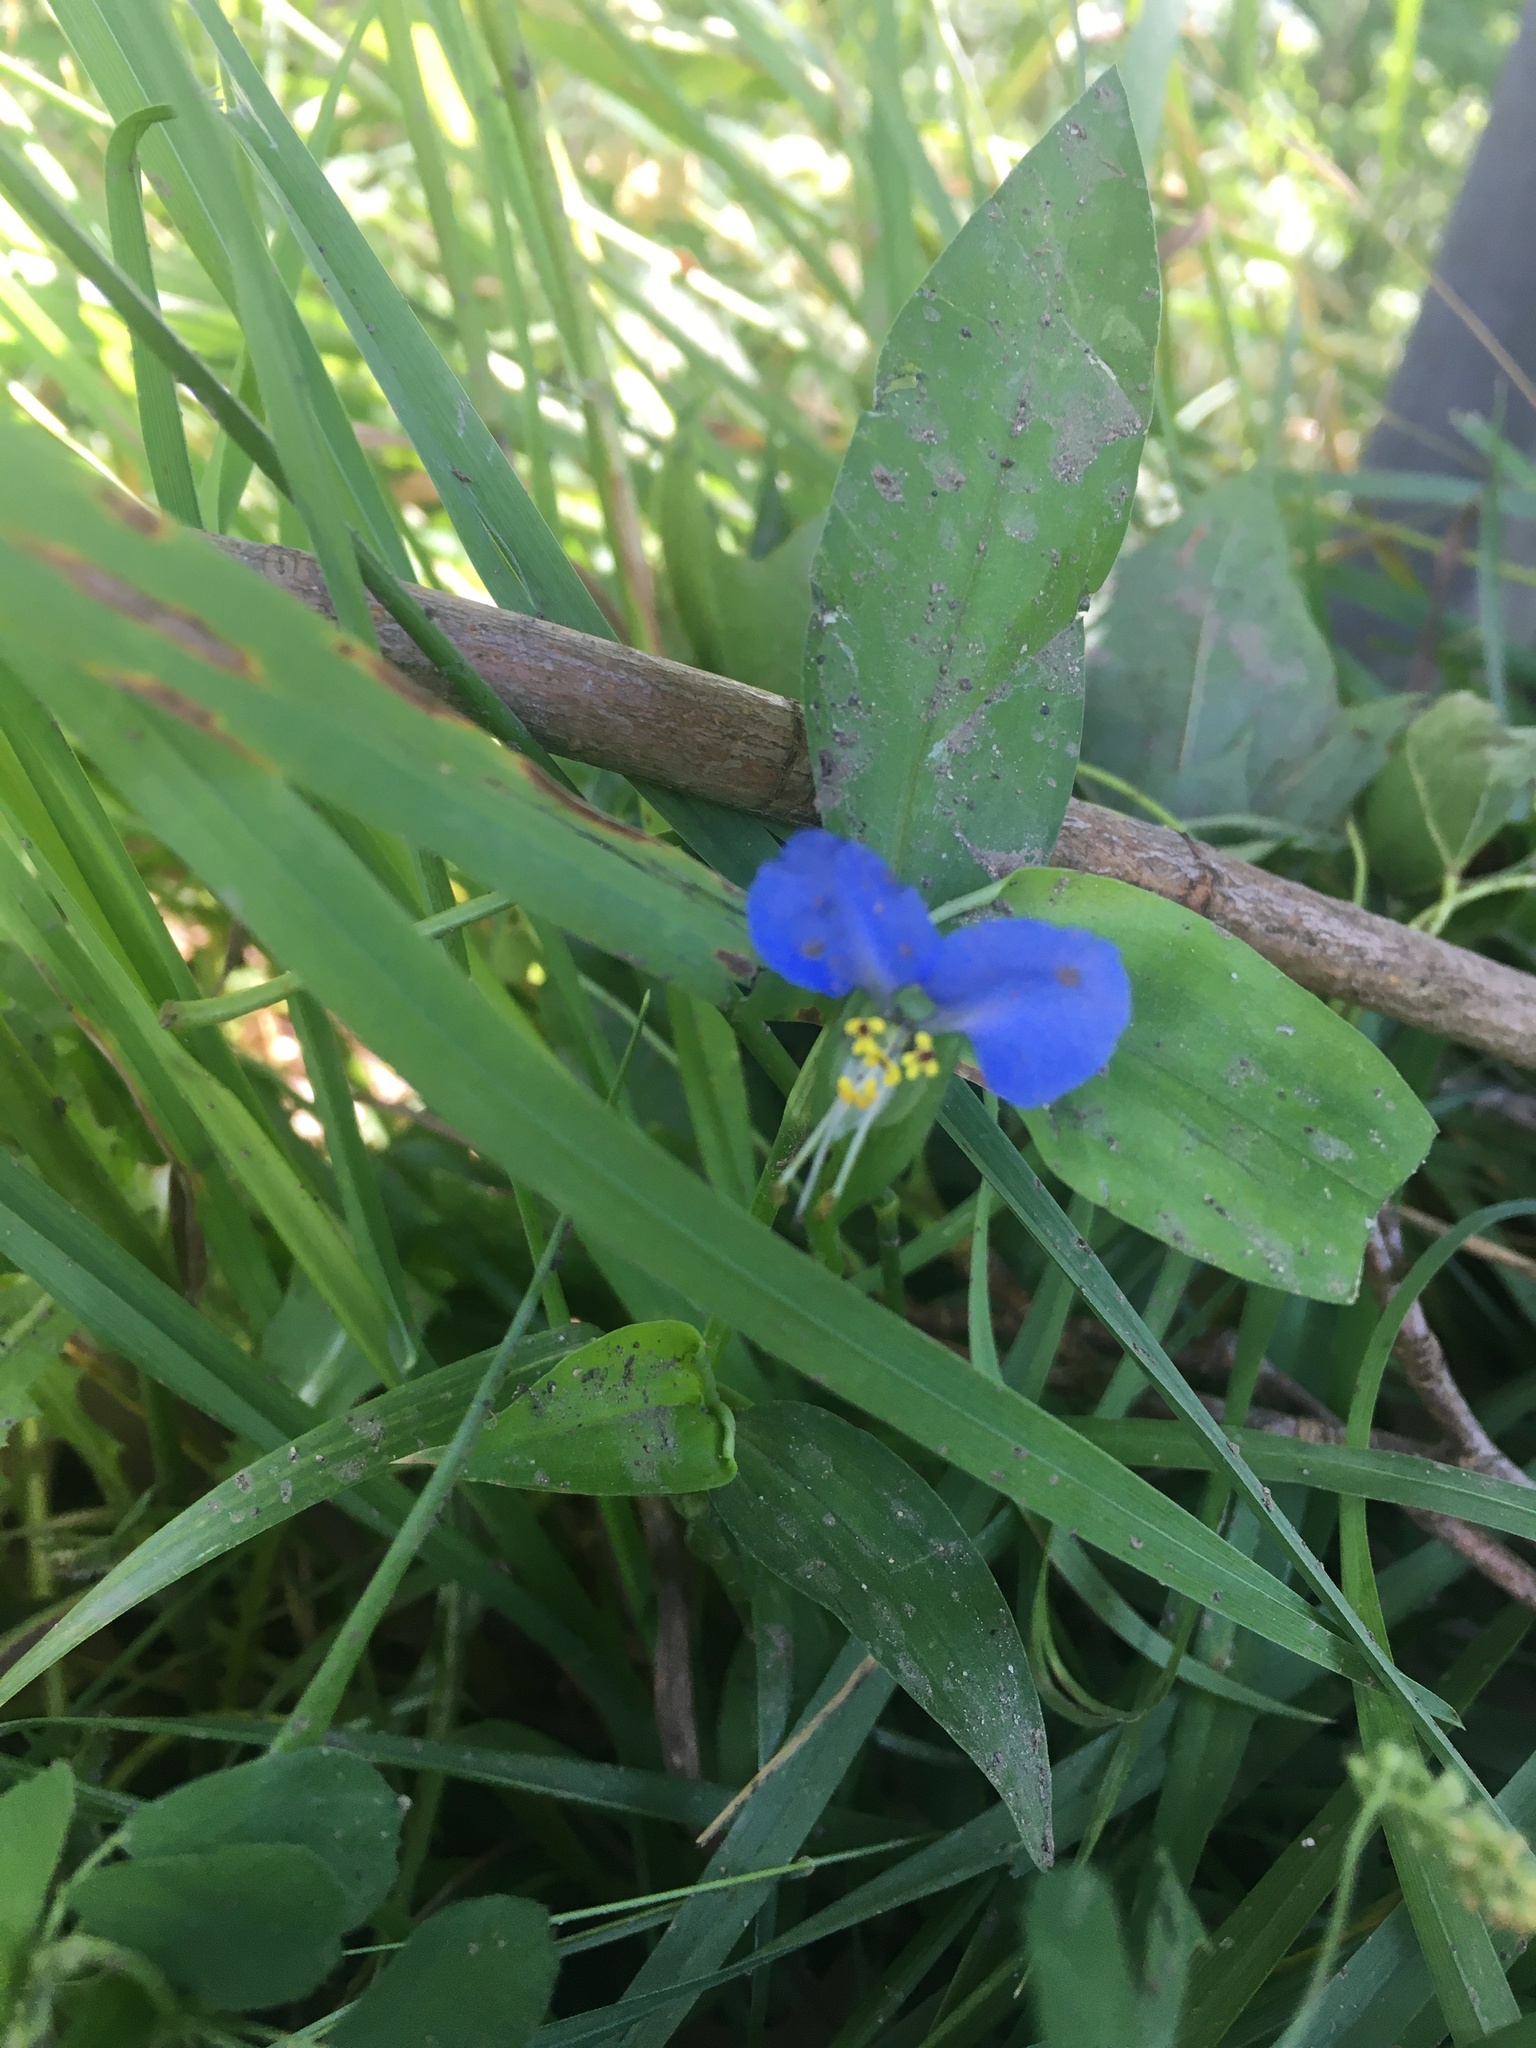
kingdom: Plantae
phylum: Tracheophyta
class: Liliopsida
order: Commelinales
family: Commelinaceae
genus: Commelina
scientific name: Commelina communis
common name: Asiatic dayflower
